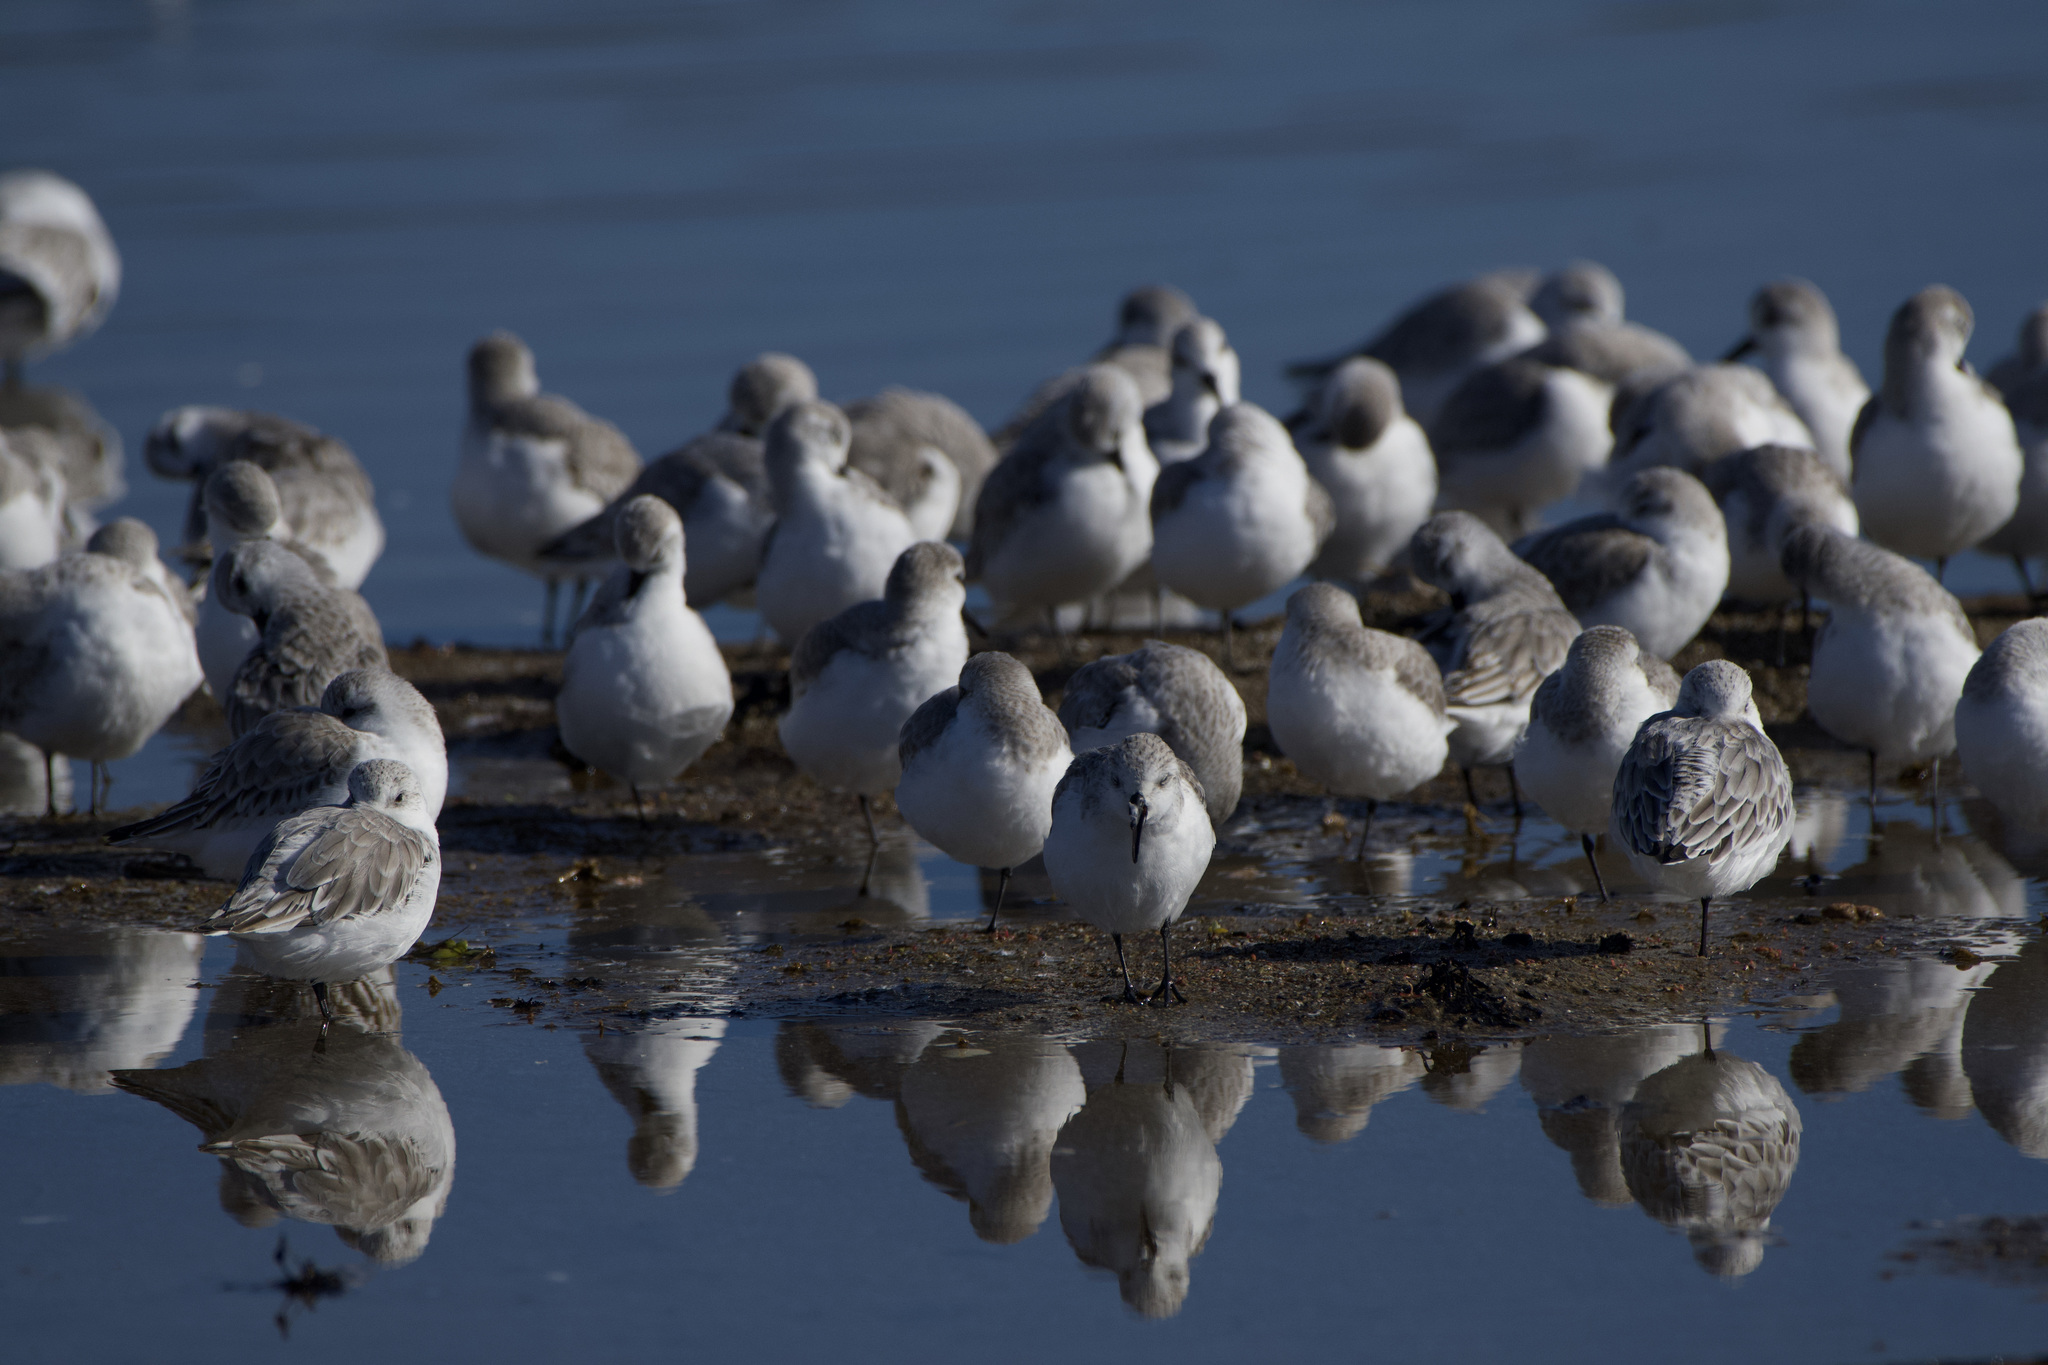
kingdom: Animalia
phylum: Chordata
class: Aves
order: Charadriiformes
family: Scolopacidae
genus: Calidris
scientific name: Calidris alba
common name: Sanderling
